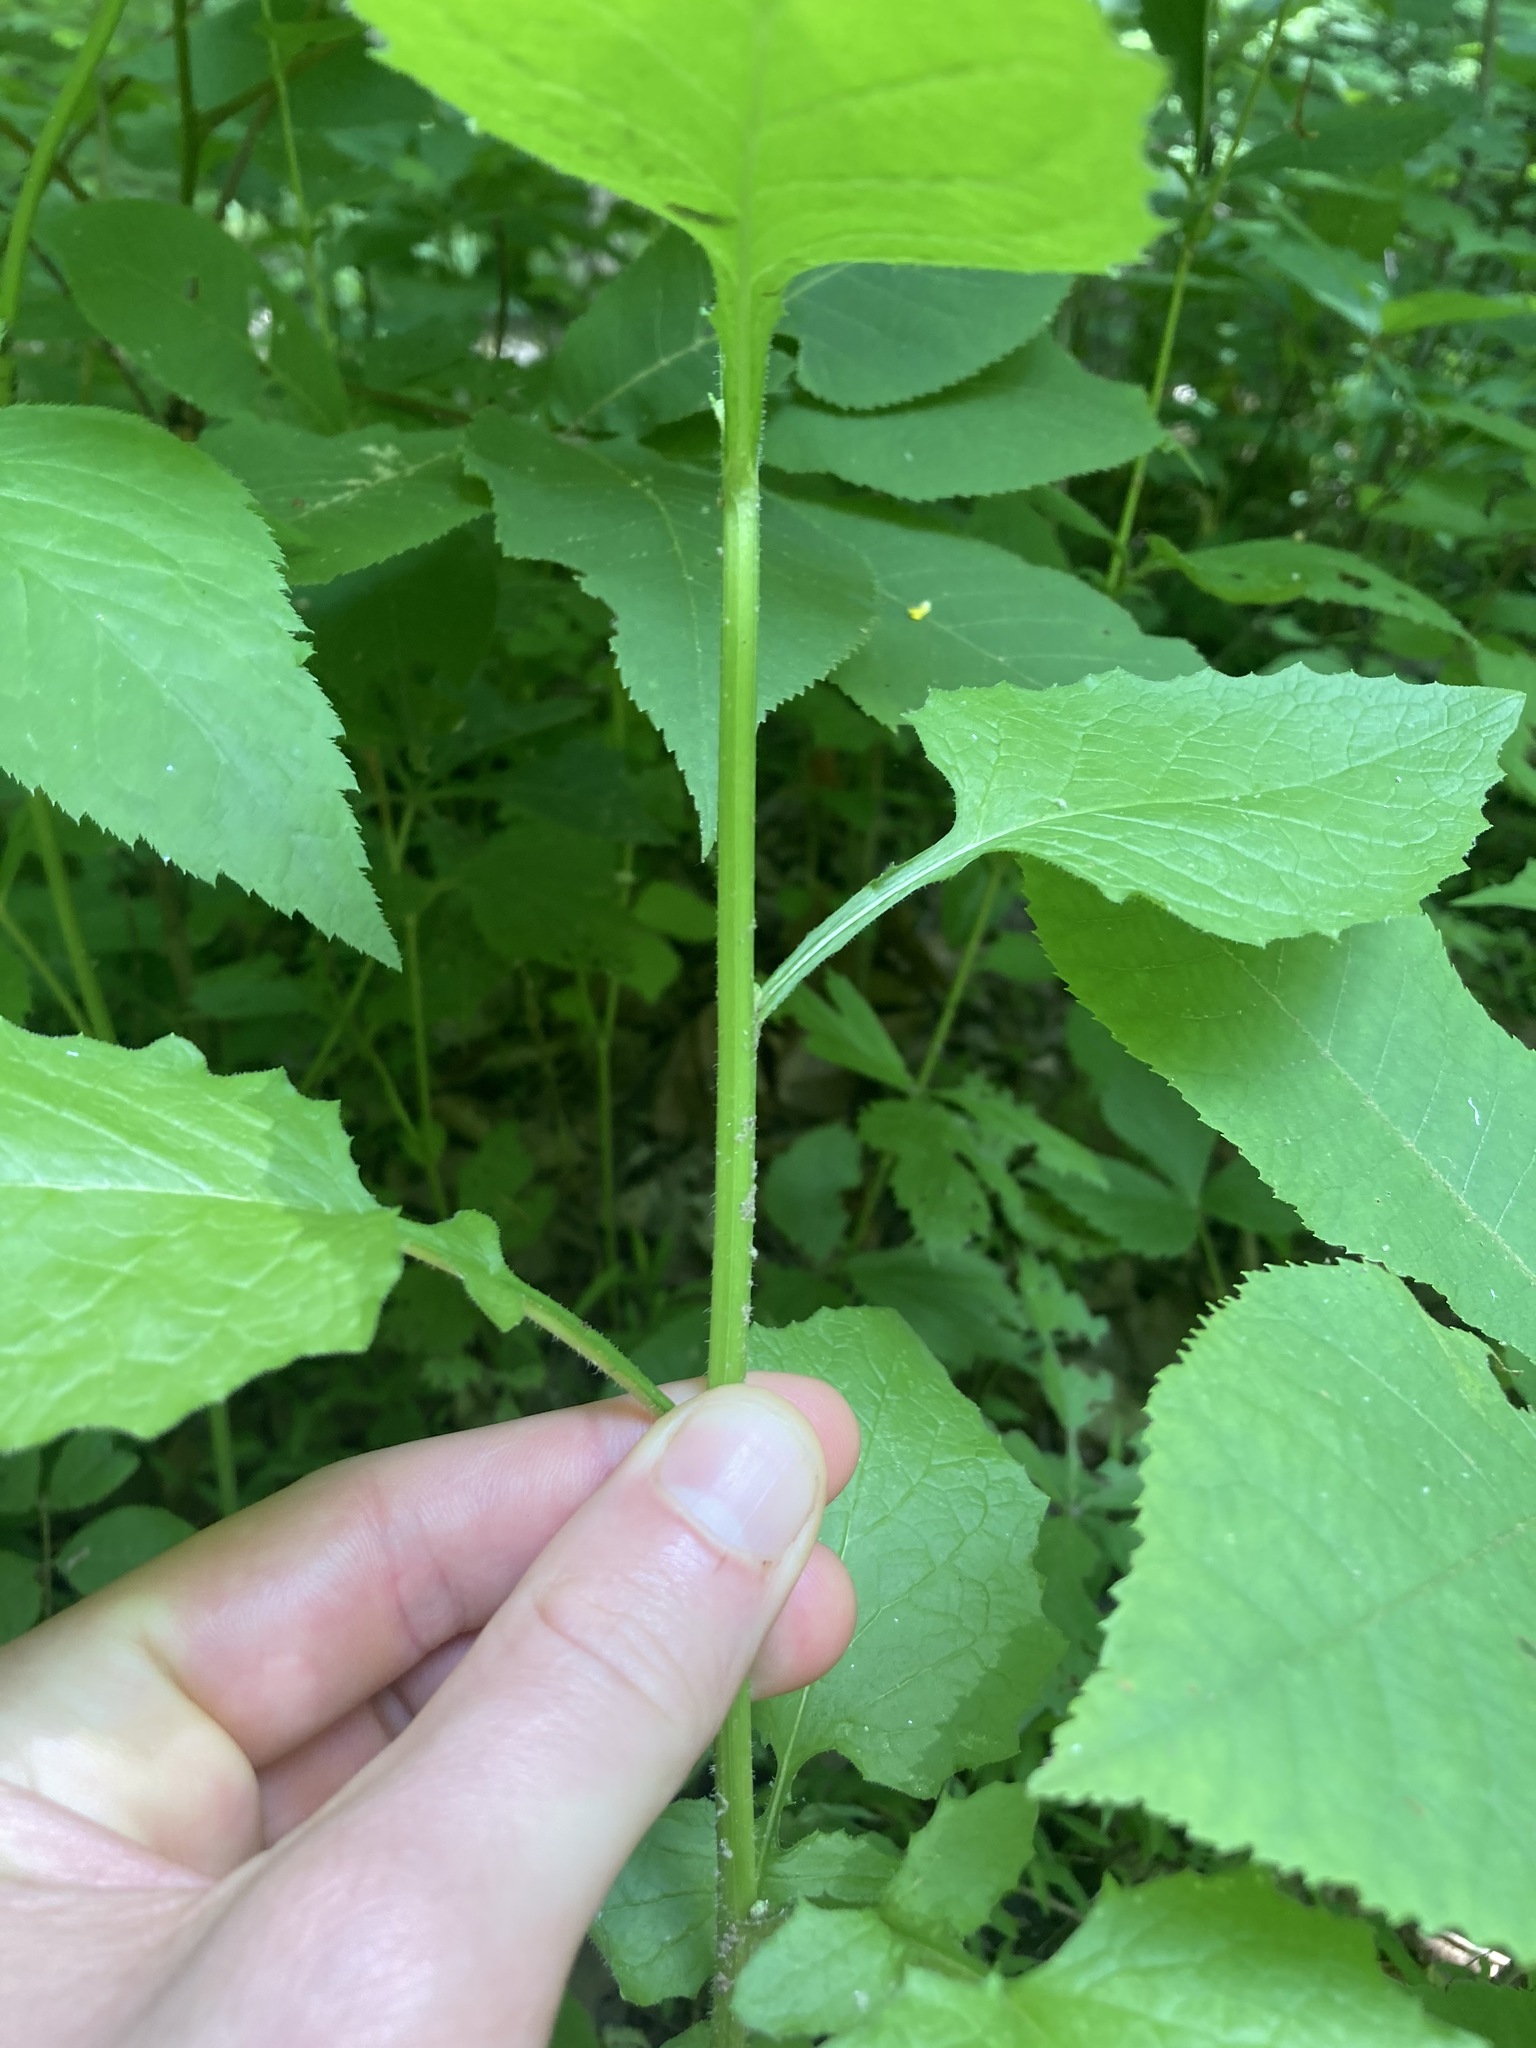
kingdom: Plantae
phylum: Tracheophyta
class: Magnoliopsida
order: Asterales
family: Asteraceae
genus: Lapsana
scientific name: Lapsana communis
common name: Nipplewort
